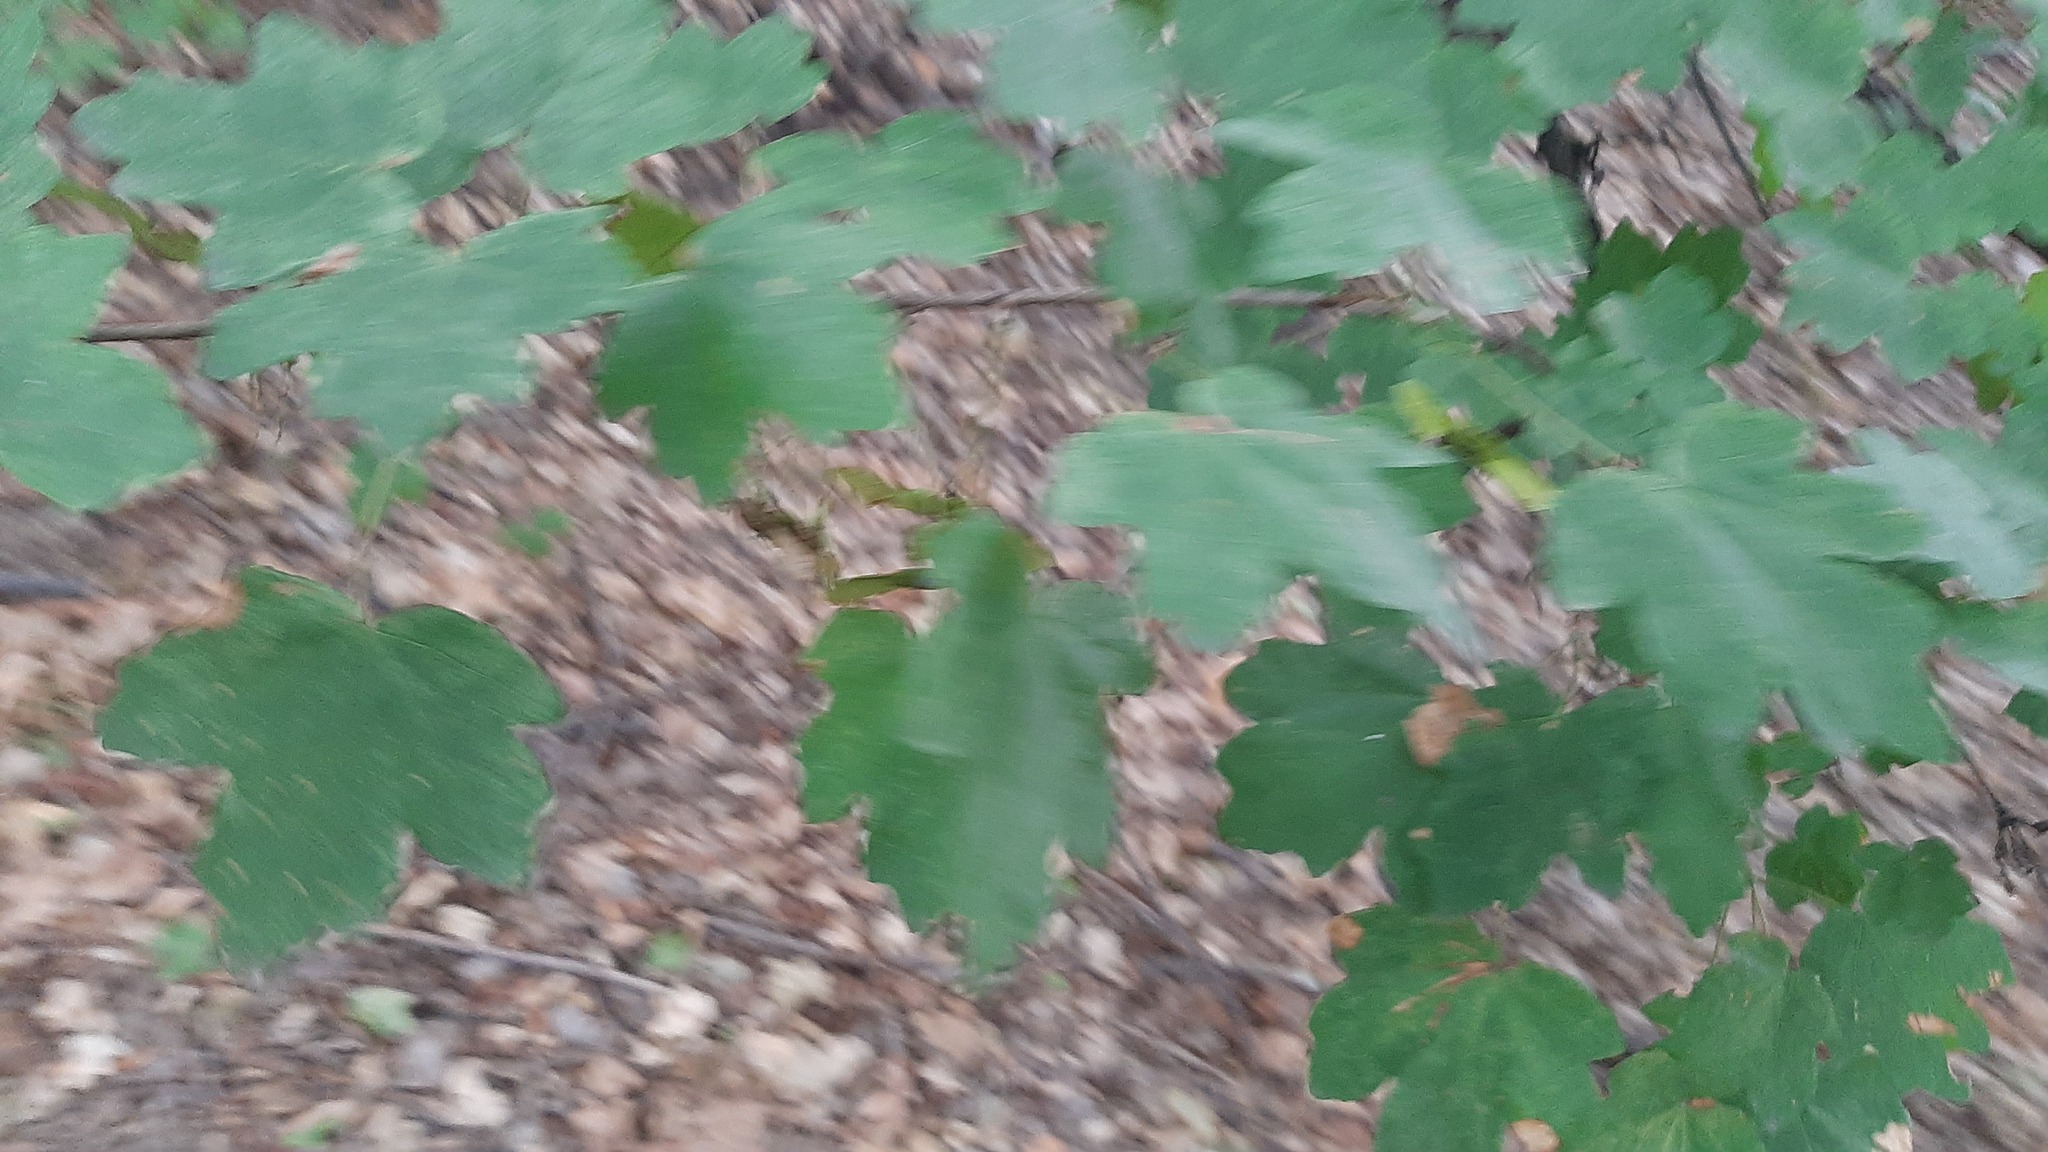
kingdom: Plantae
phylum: Tracheophyta
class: Magnoliopsida
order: Sapindales
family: Sapindaceae
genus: Acer
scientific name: Acer campestre
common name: Field maple
